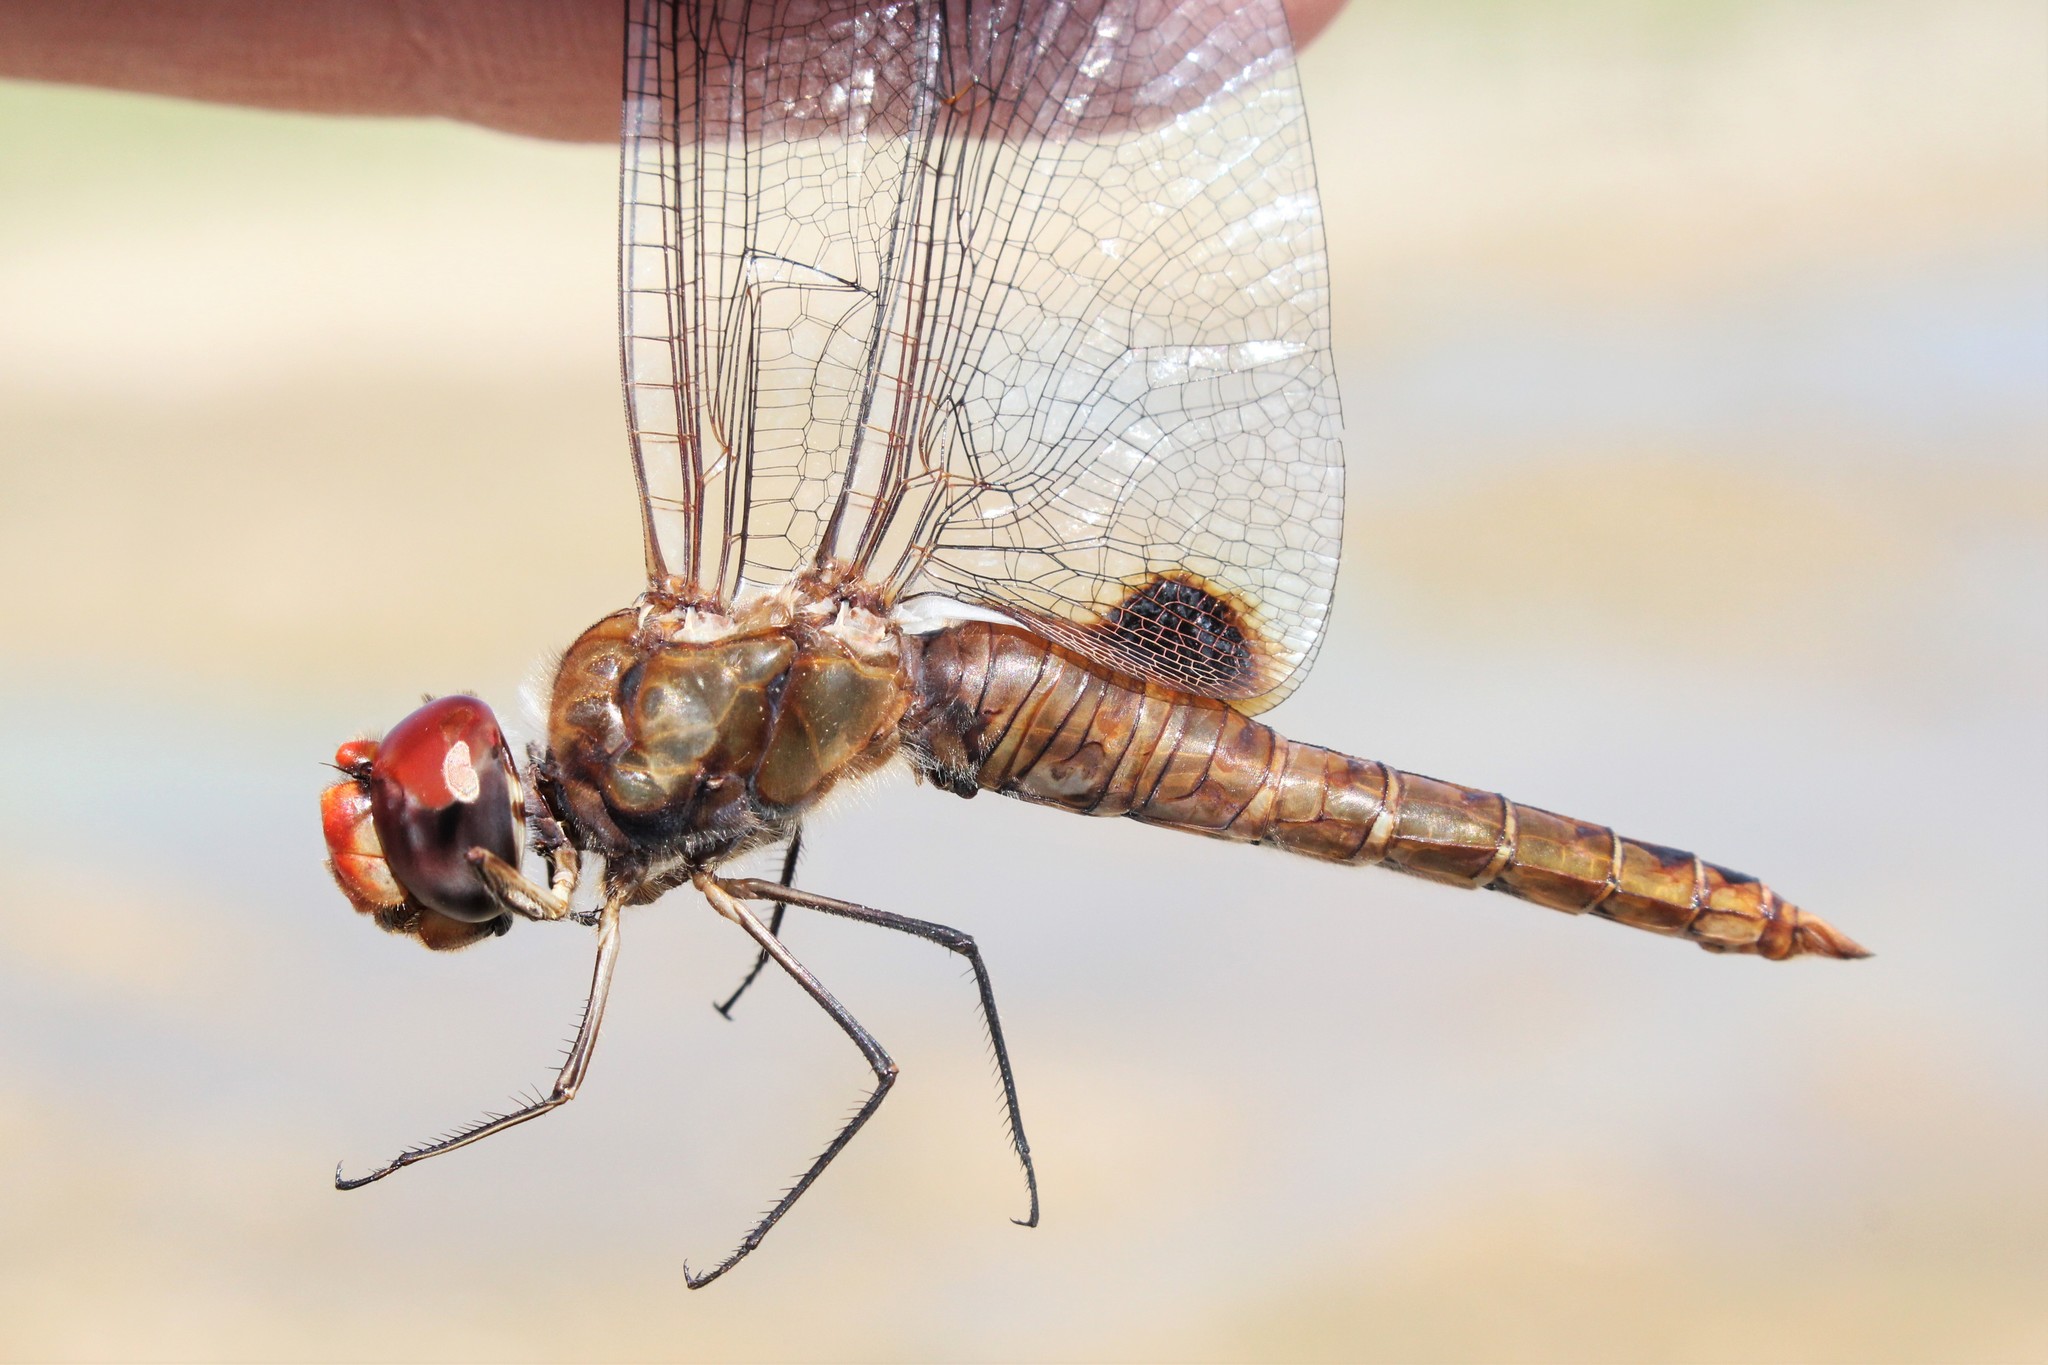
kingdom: Animalia
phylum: Arthropoda
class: Insecta
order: Odonata
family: Libellulidae
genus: Pantala
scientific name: Pantala hymenaea
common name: Spot-winged glider
